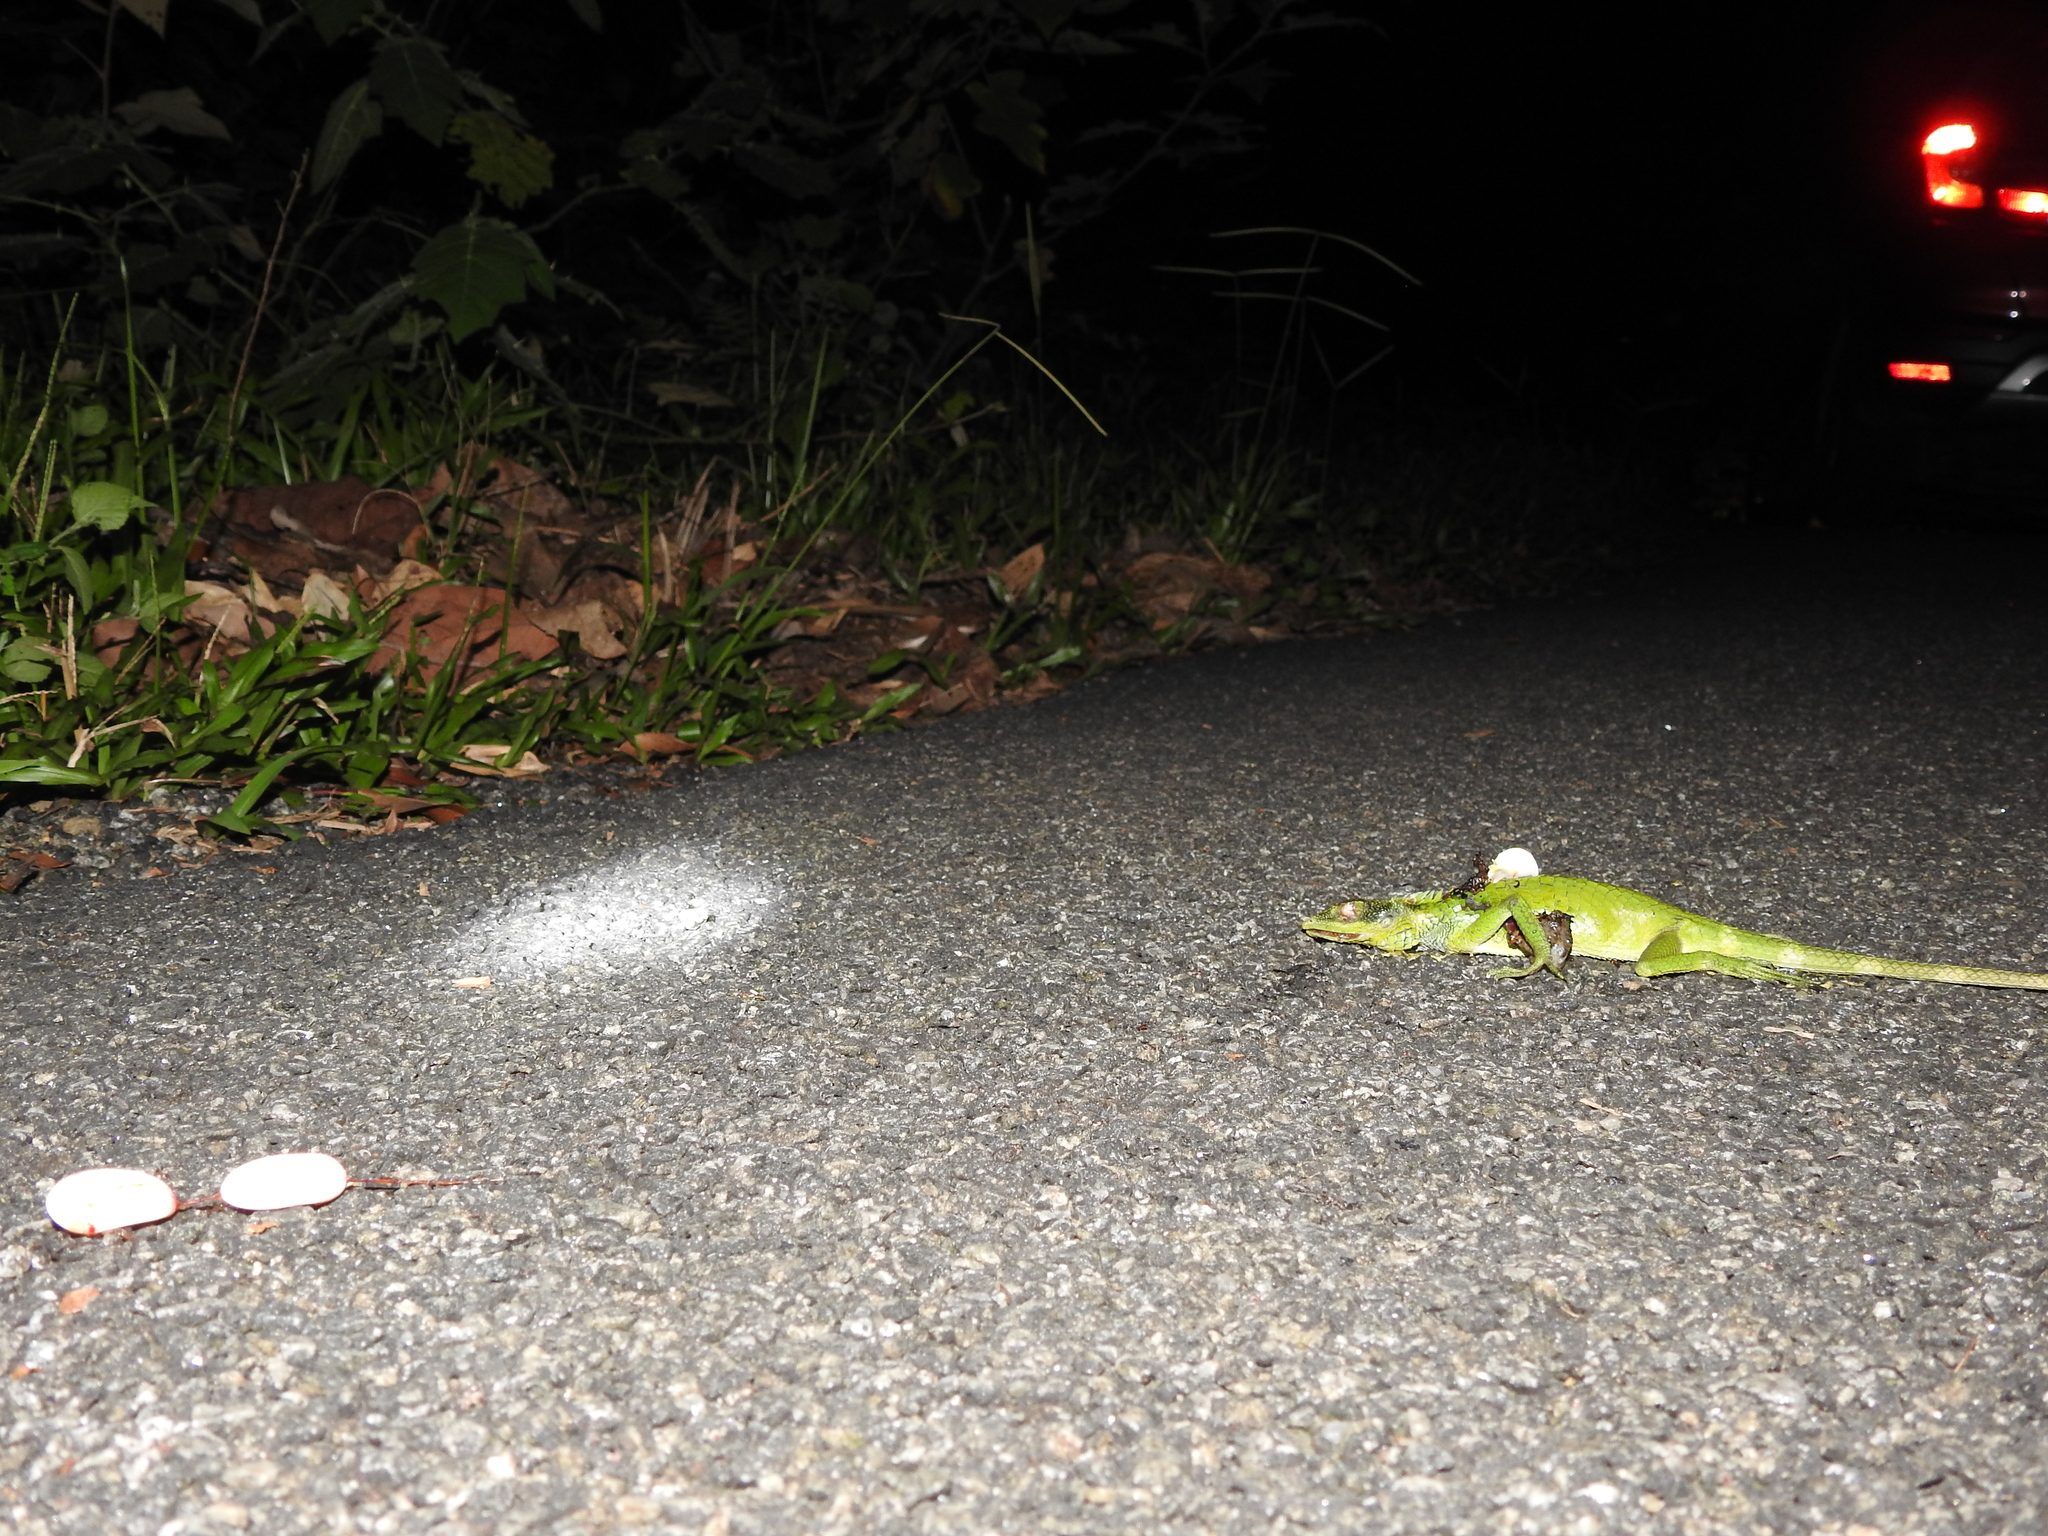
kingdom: Animalia
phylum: Chordata
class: Squamata
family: Agamidae
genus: Calotes
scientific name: Calotes grandisquamis
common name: Big scaled variable lizard
